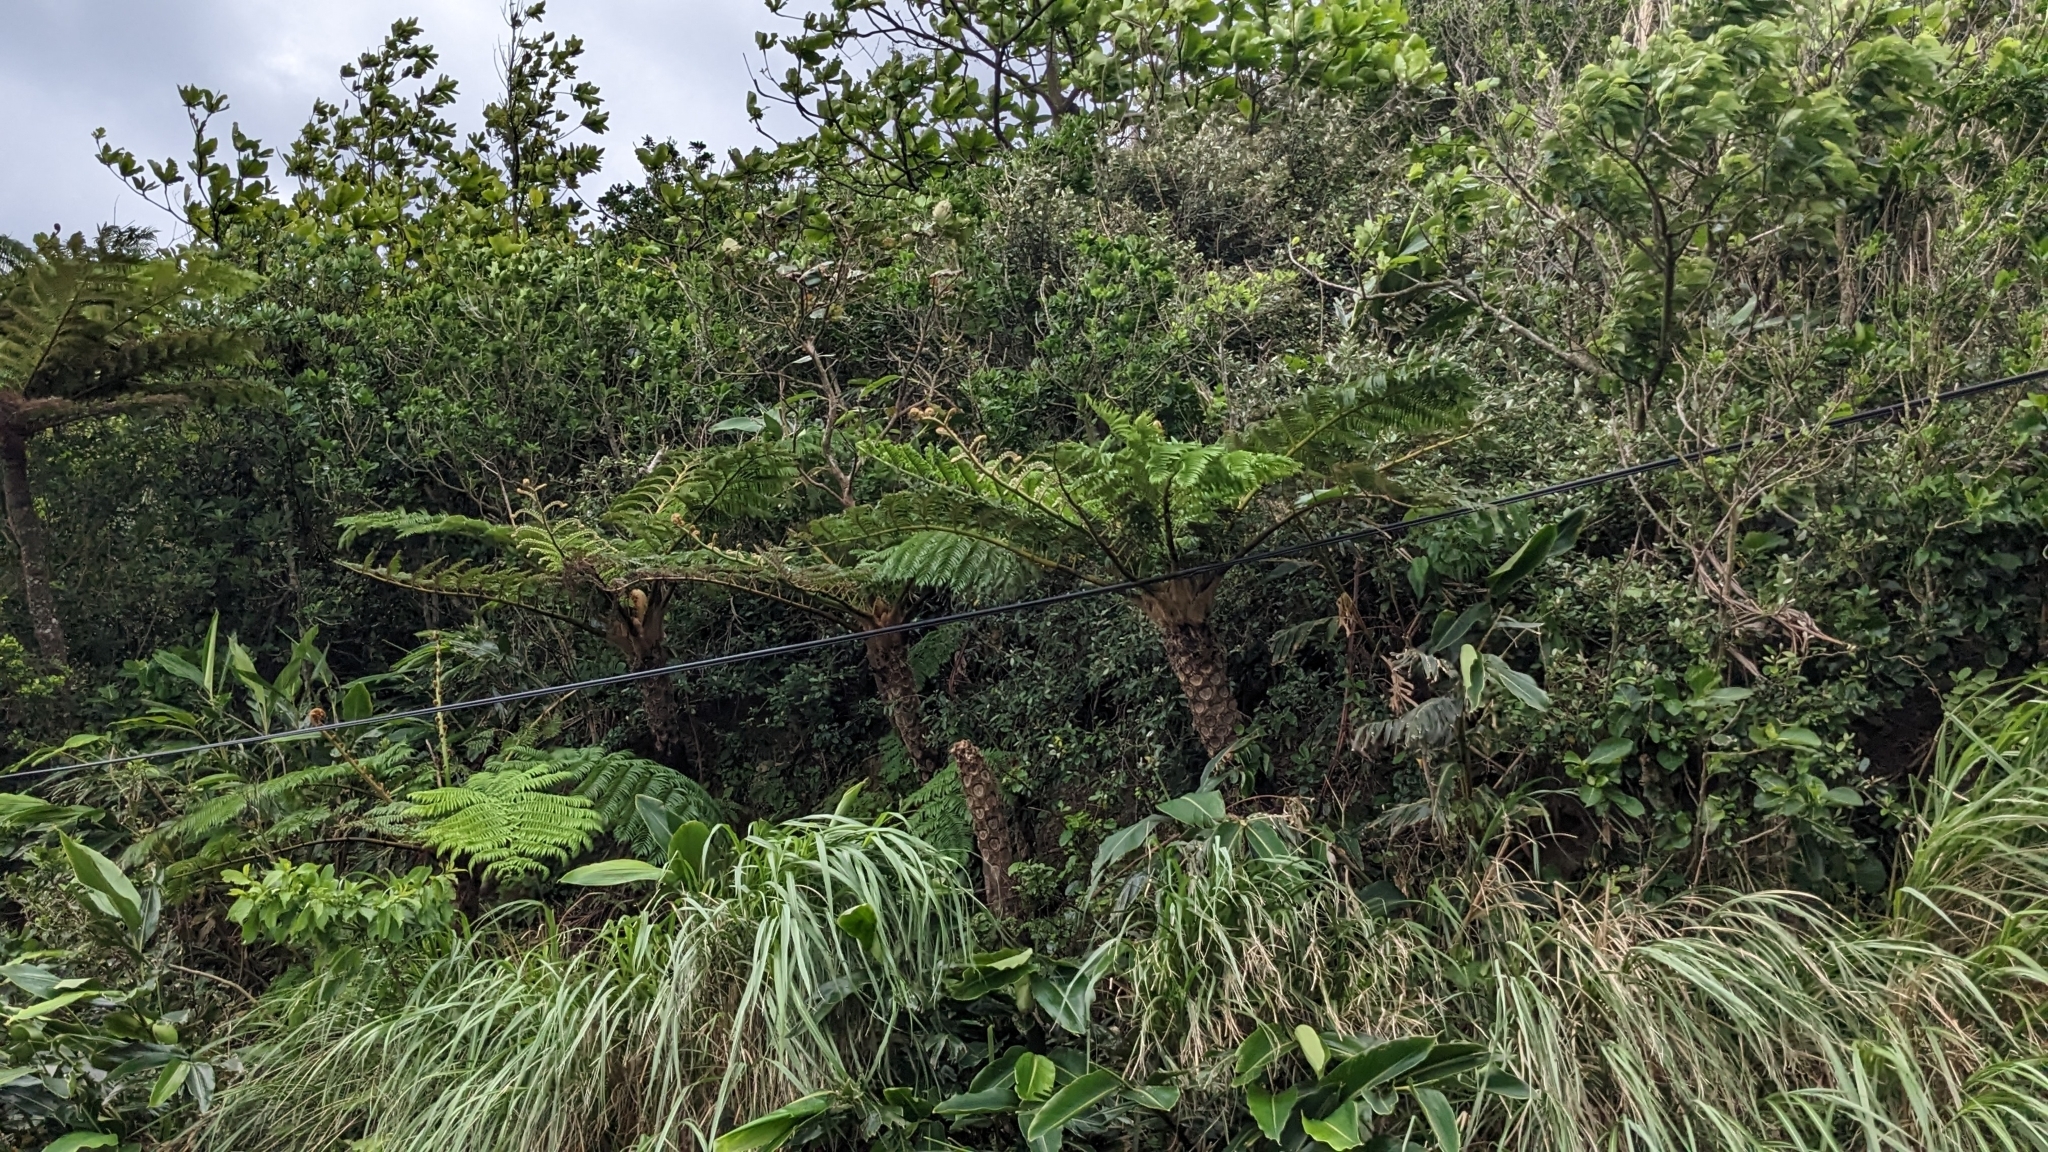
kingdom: Plantae
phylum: Tracheophyta
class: Polypodiopsida
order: Cyatheales
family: Cyatheaceae
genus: Alsophila
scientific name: Alsophila lepifera
